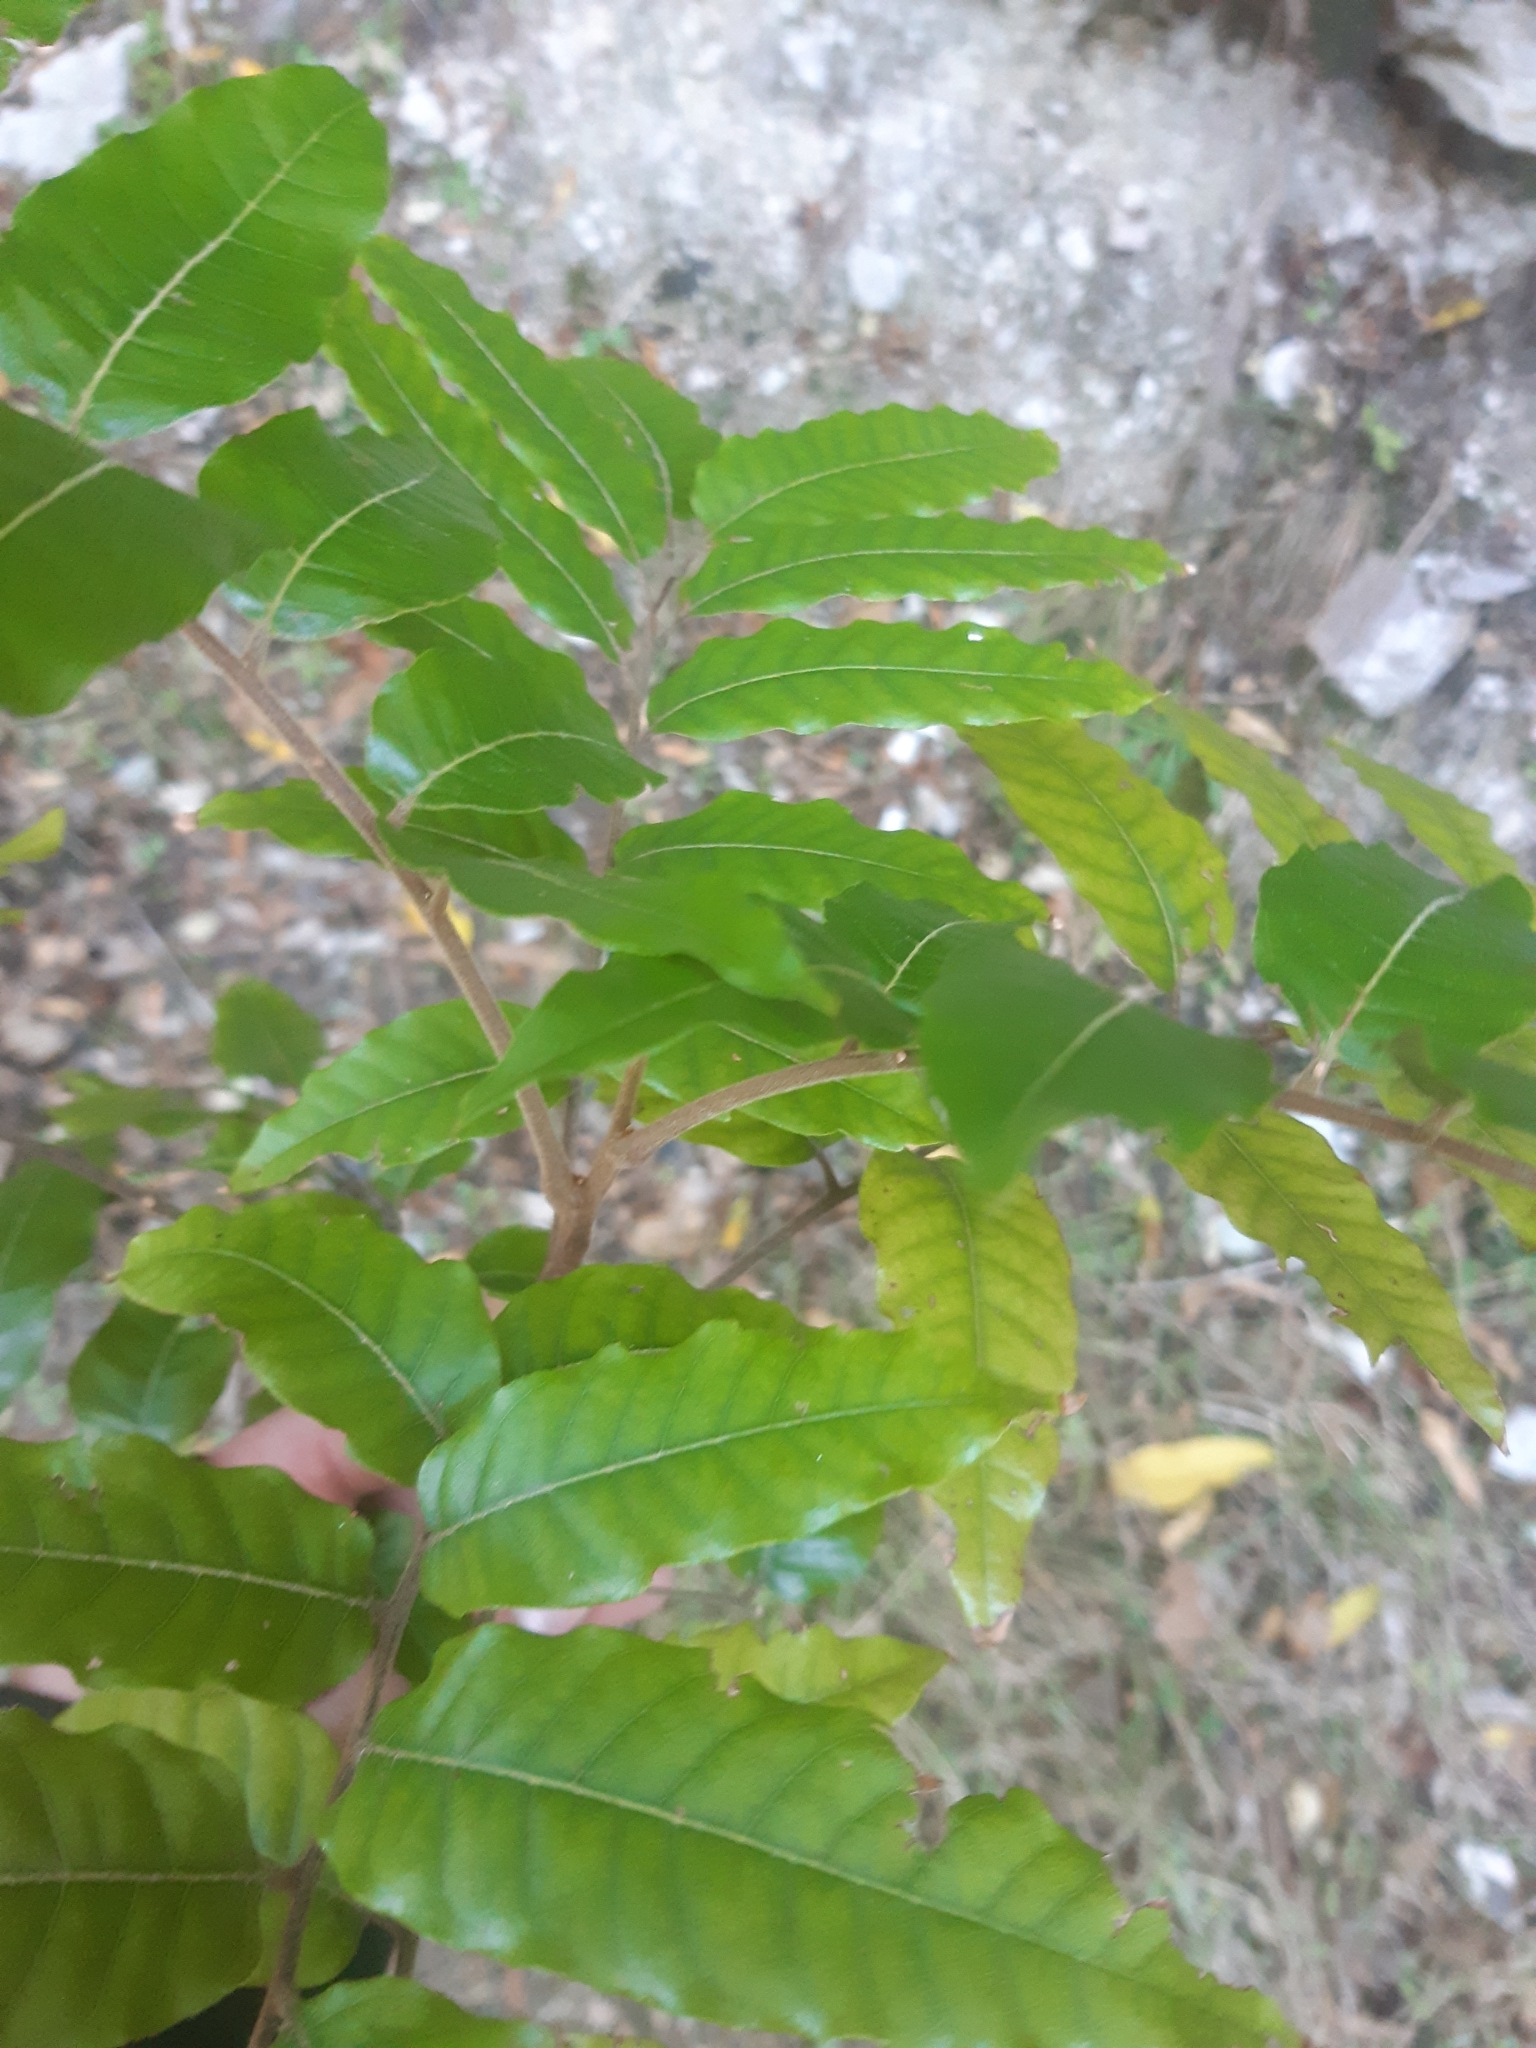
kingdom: Plantae
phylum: Tracheophyta
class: Magnoliopsida
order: Sapindales
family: Sapindaceae
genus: Alectryon
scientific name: Alectryon excelsus
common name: Three kings titoki
